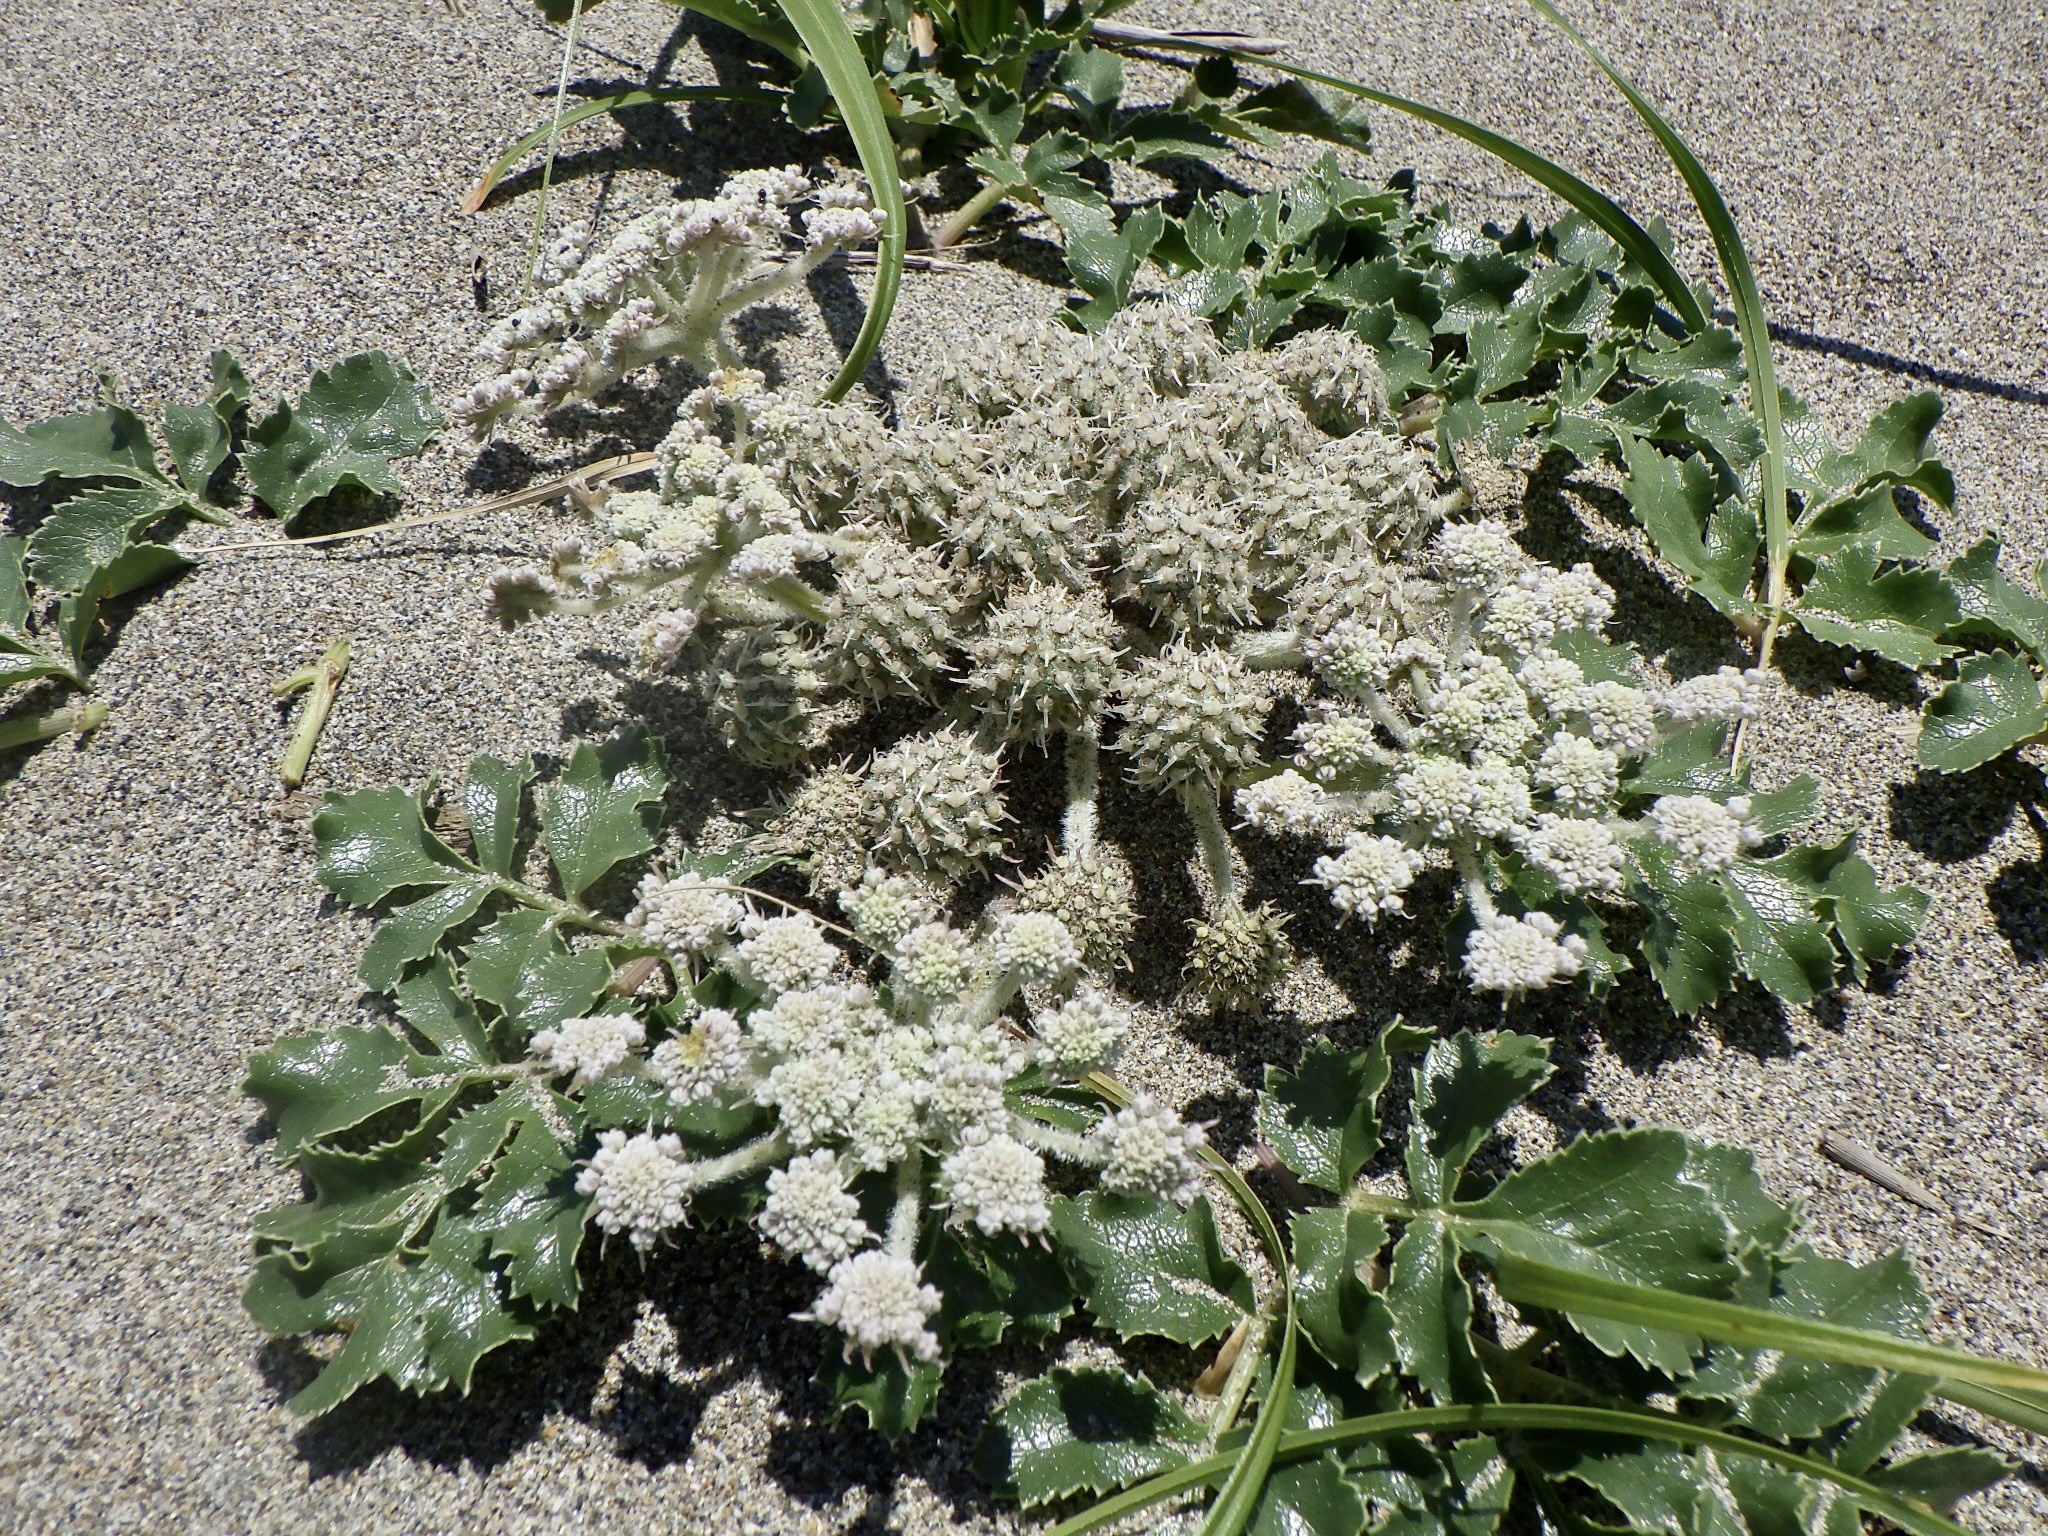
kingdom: Plantae
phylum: Tracheophyta
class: Magnoliopsida
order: Apiales
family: Apiaceae
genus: Glehnia
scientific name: Glehnia littoralis
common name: Beach silvertop
